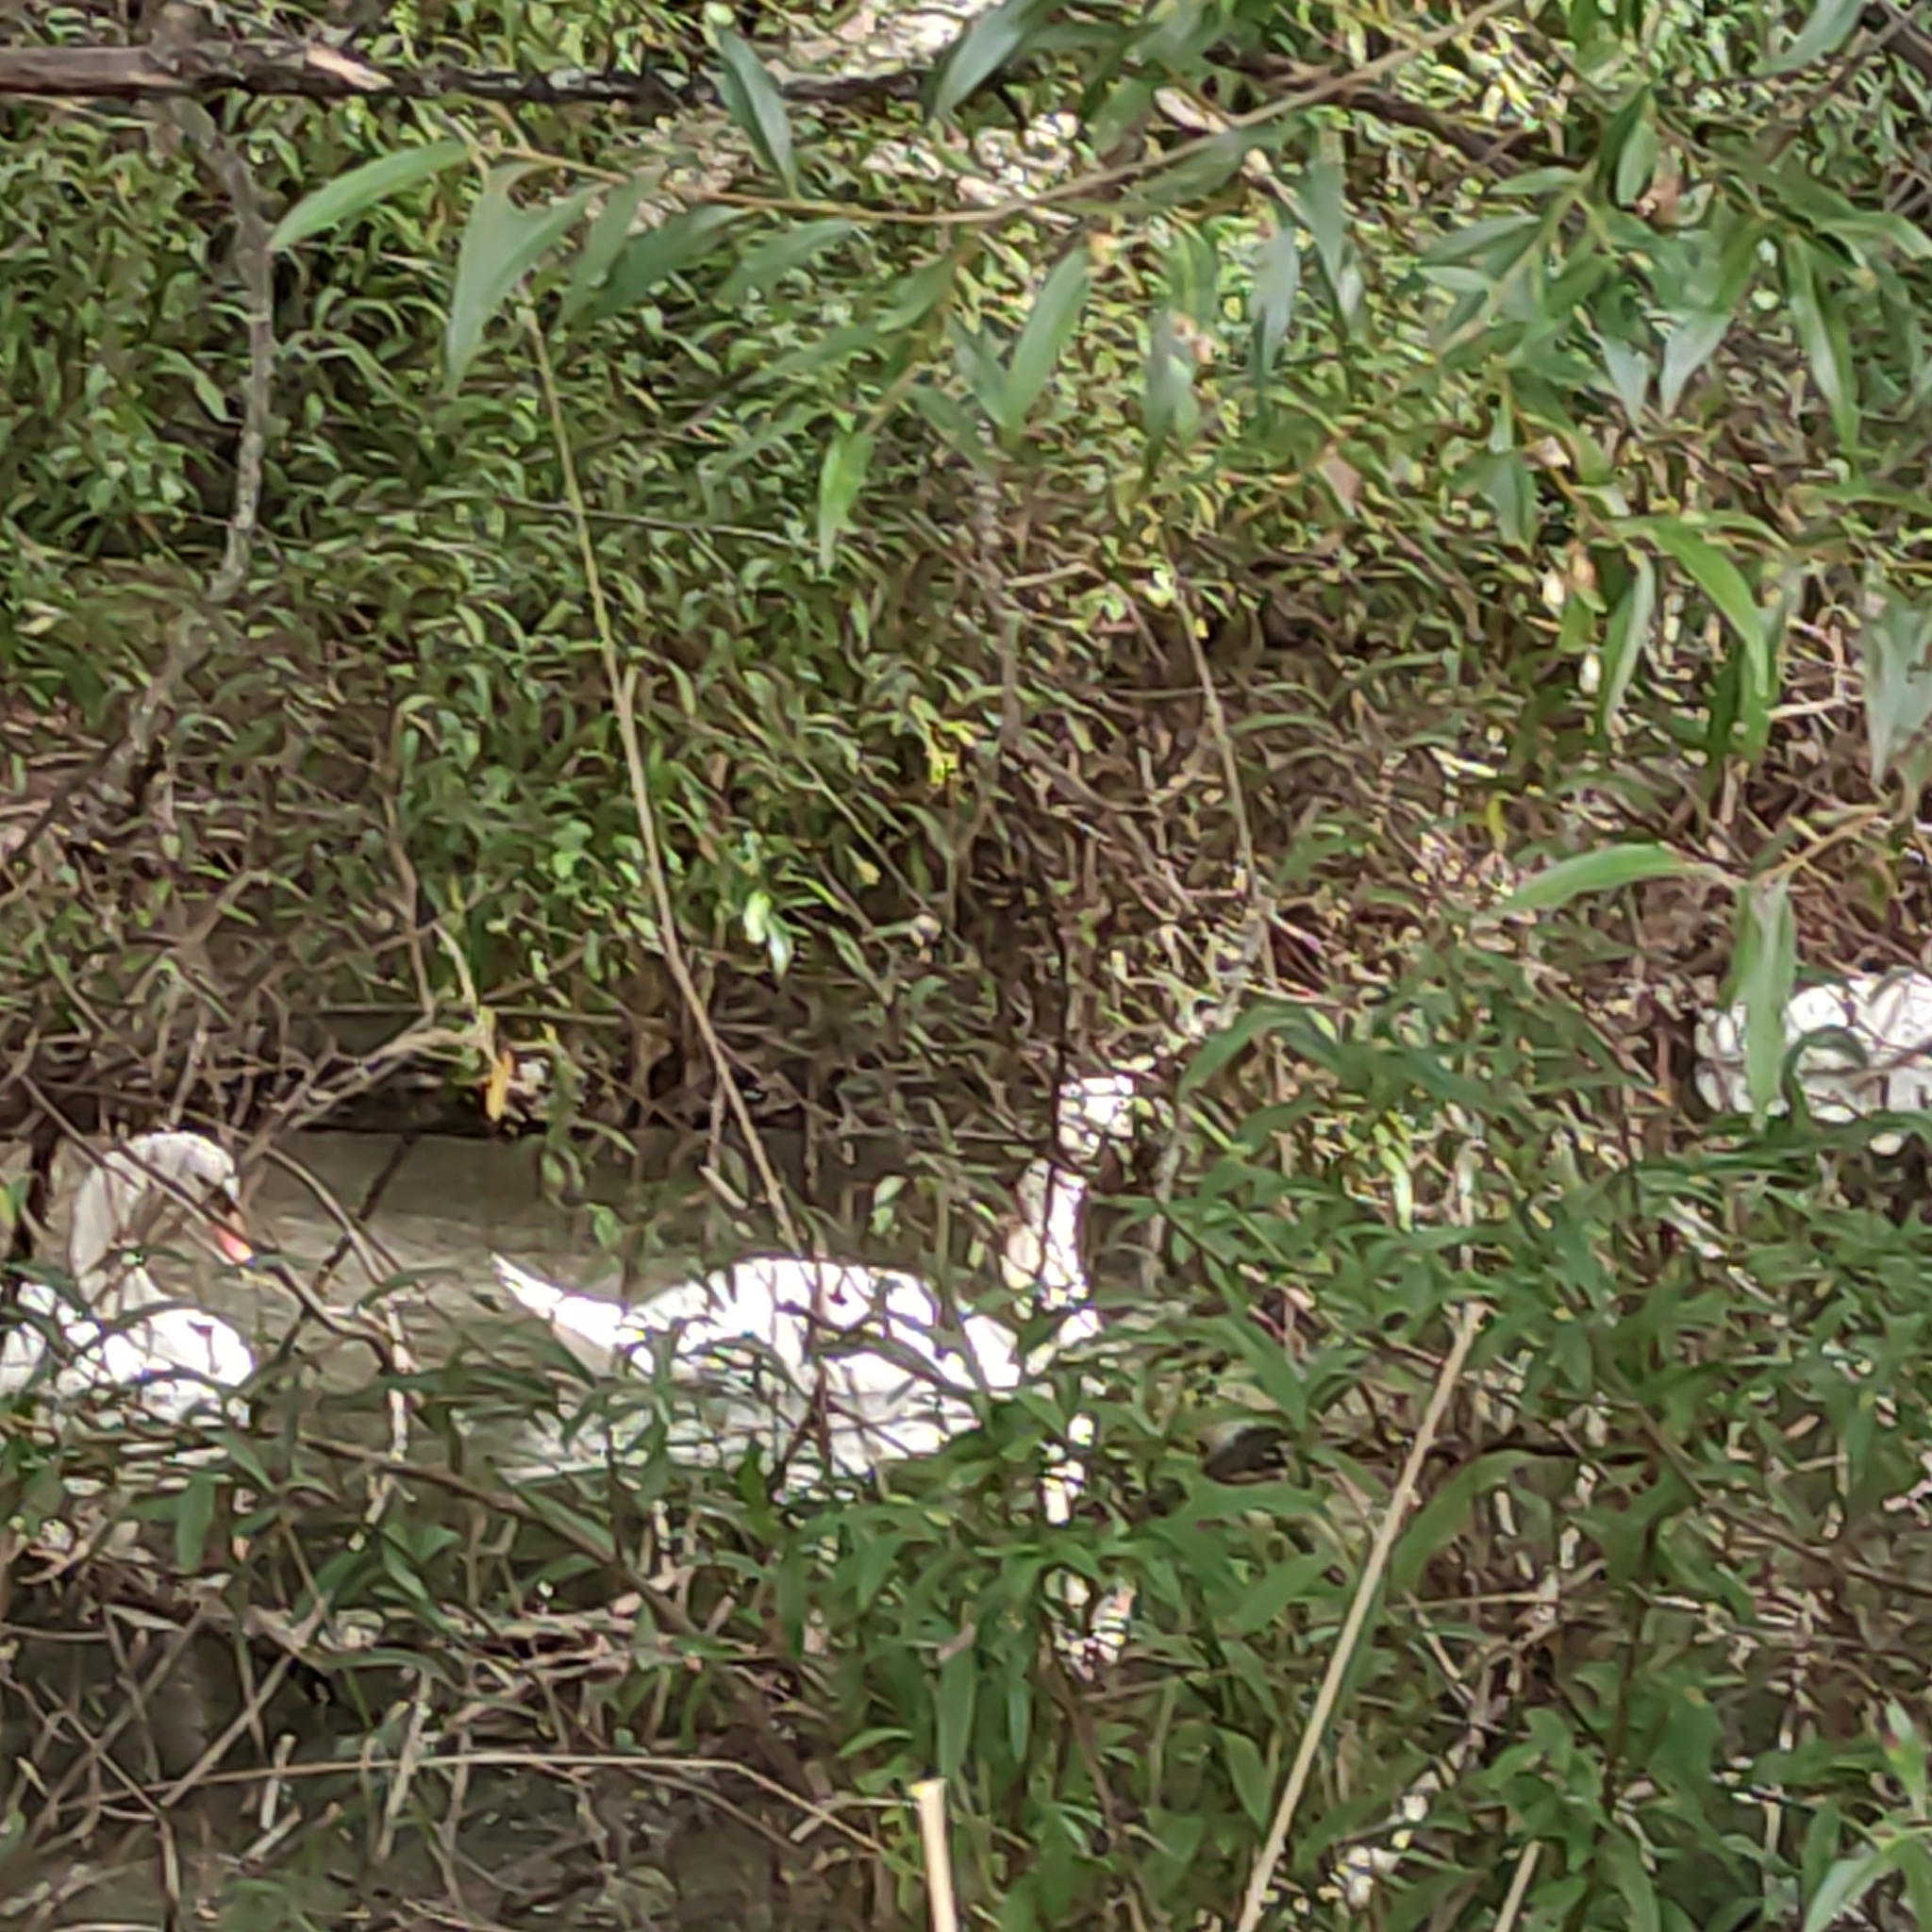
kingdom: Animalia
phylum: Chordata
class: Aves
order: Anseriformes
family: Anatidae
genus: Cygnus
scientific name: Cygnus olor
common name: Mute swan
